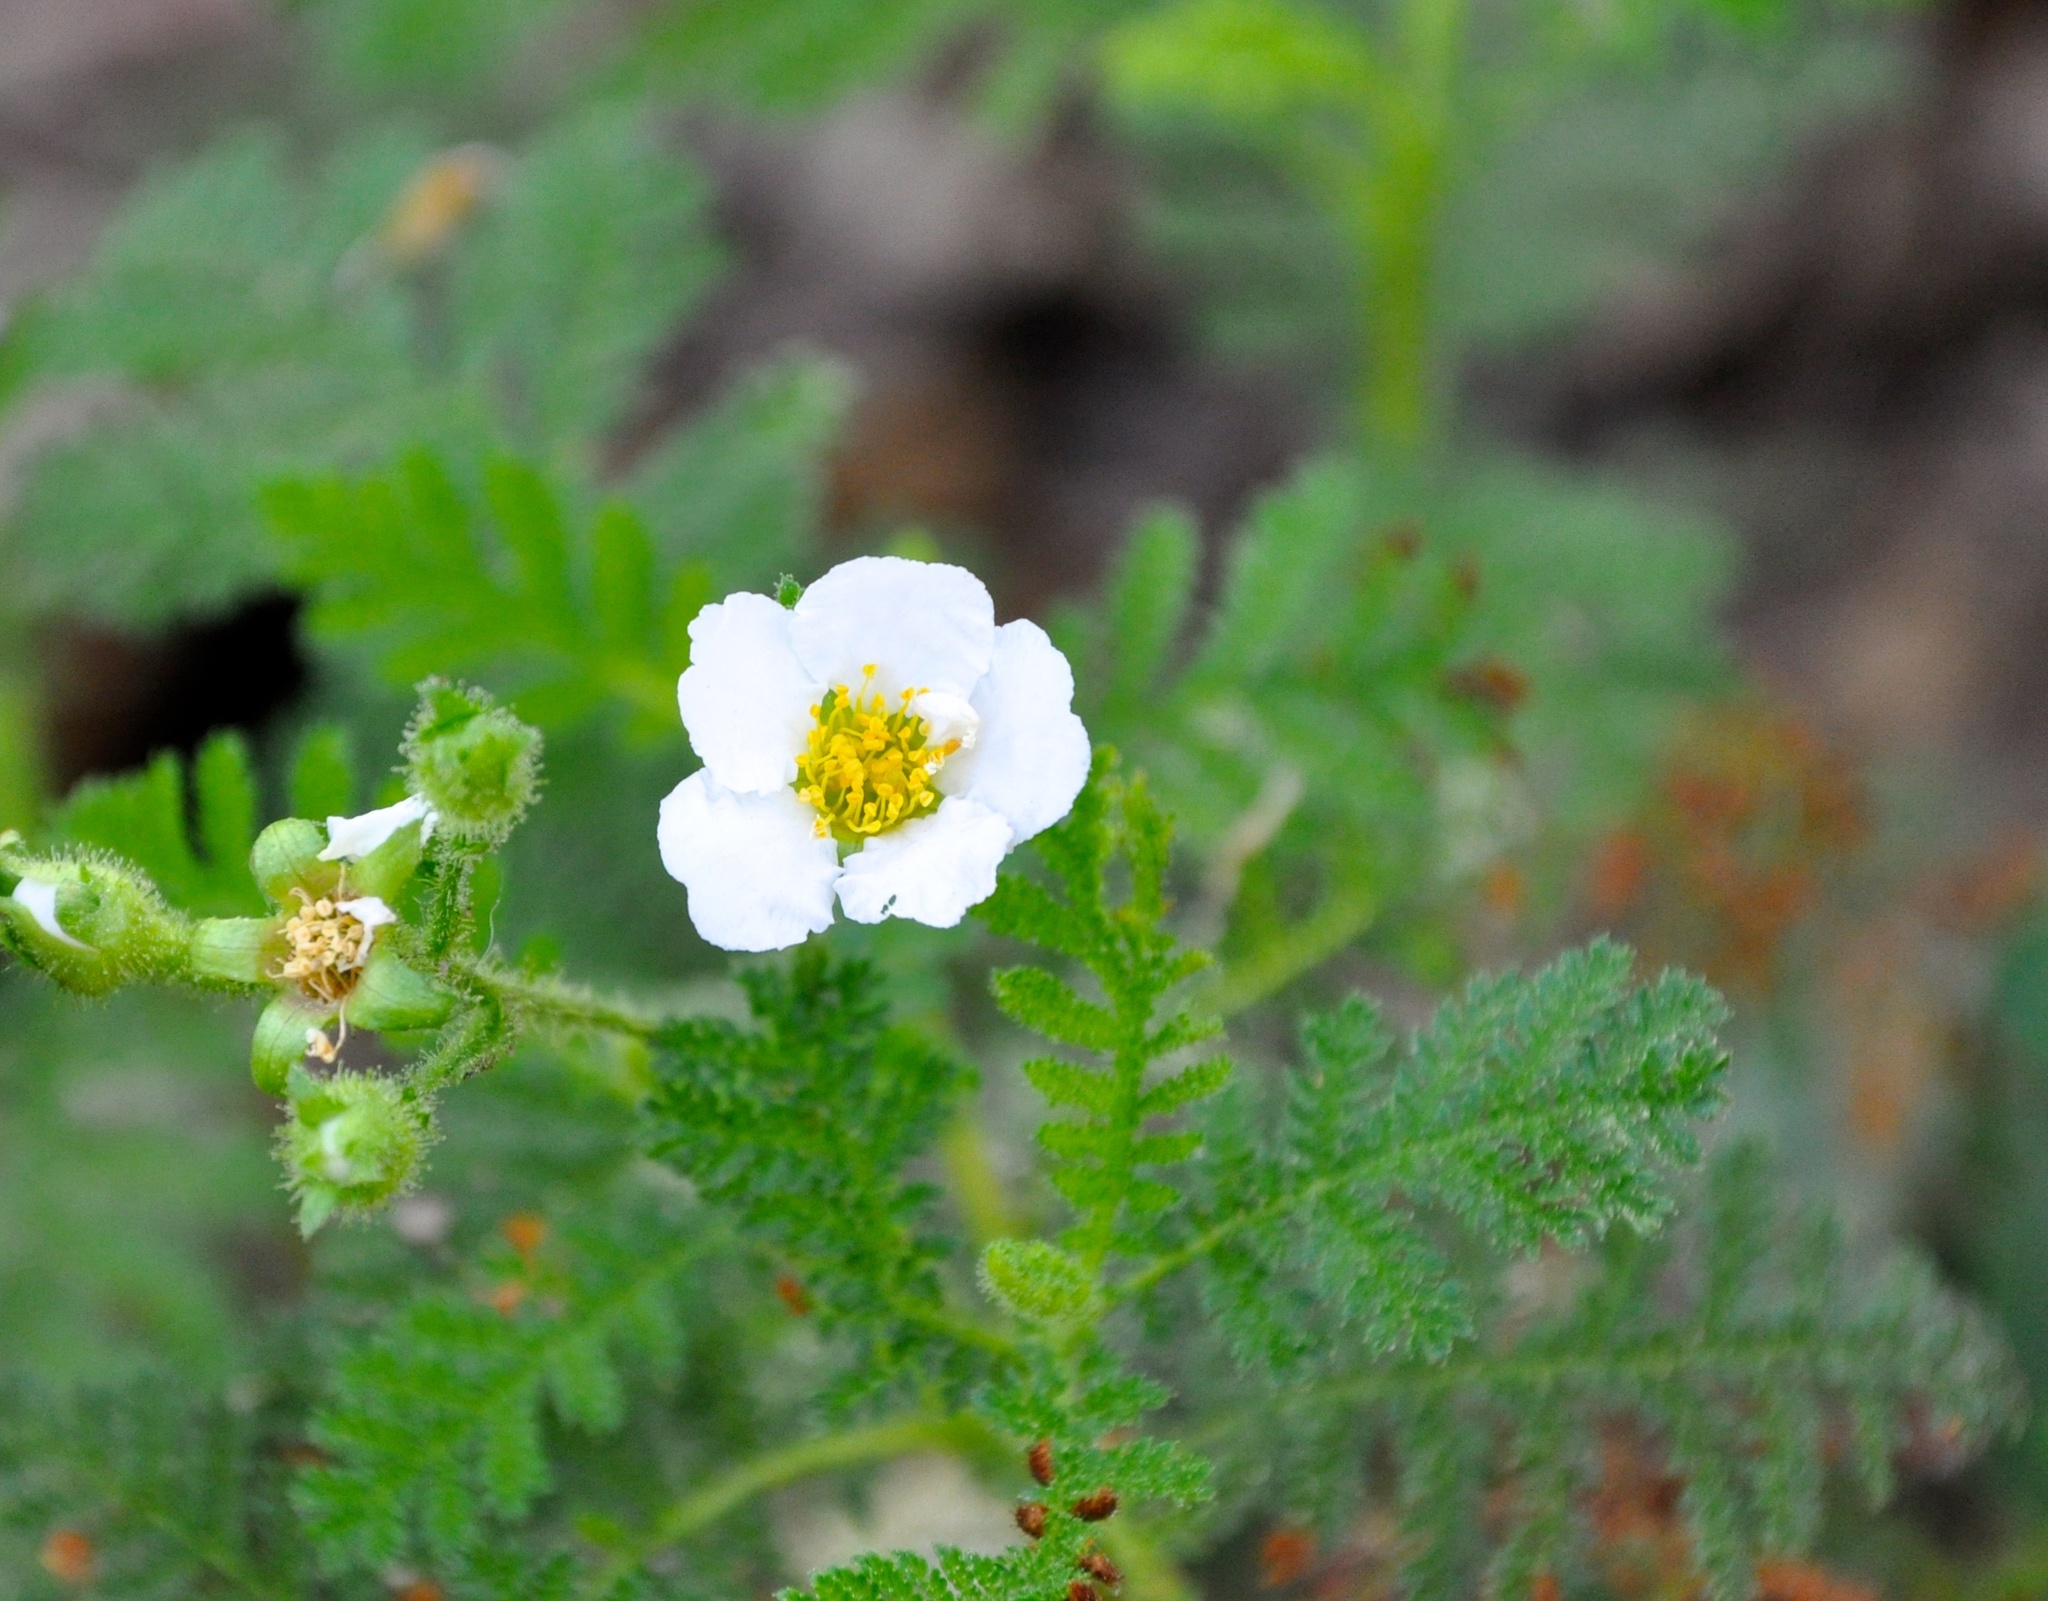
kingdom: Plantae
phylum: Tracheophyta
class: Magnoliopsida
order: Rosales
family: Rosaceae
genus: Chamaebatia
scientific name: Chamaebatia foliolosa
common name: Mountain misery
